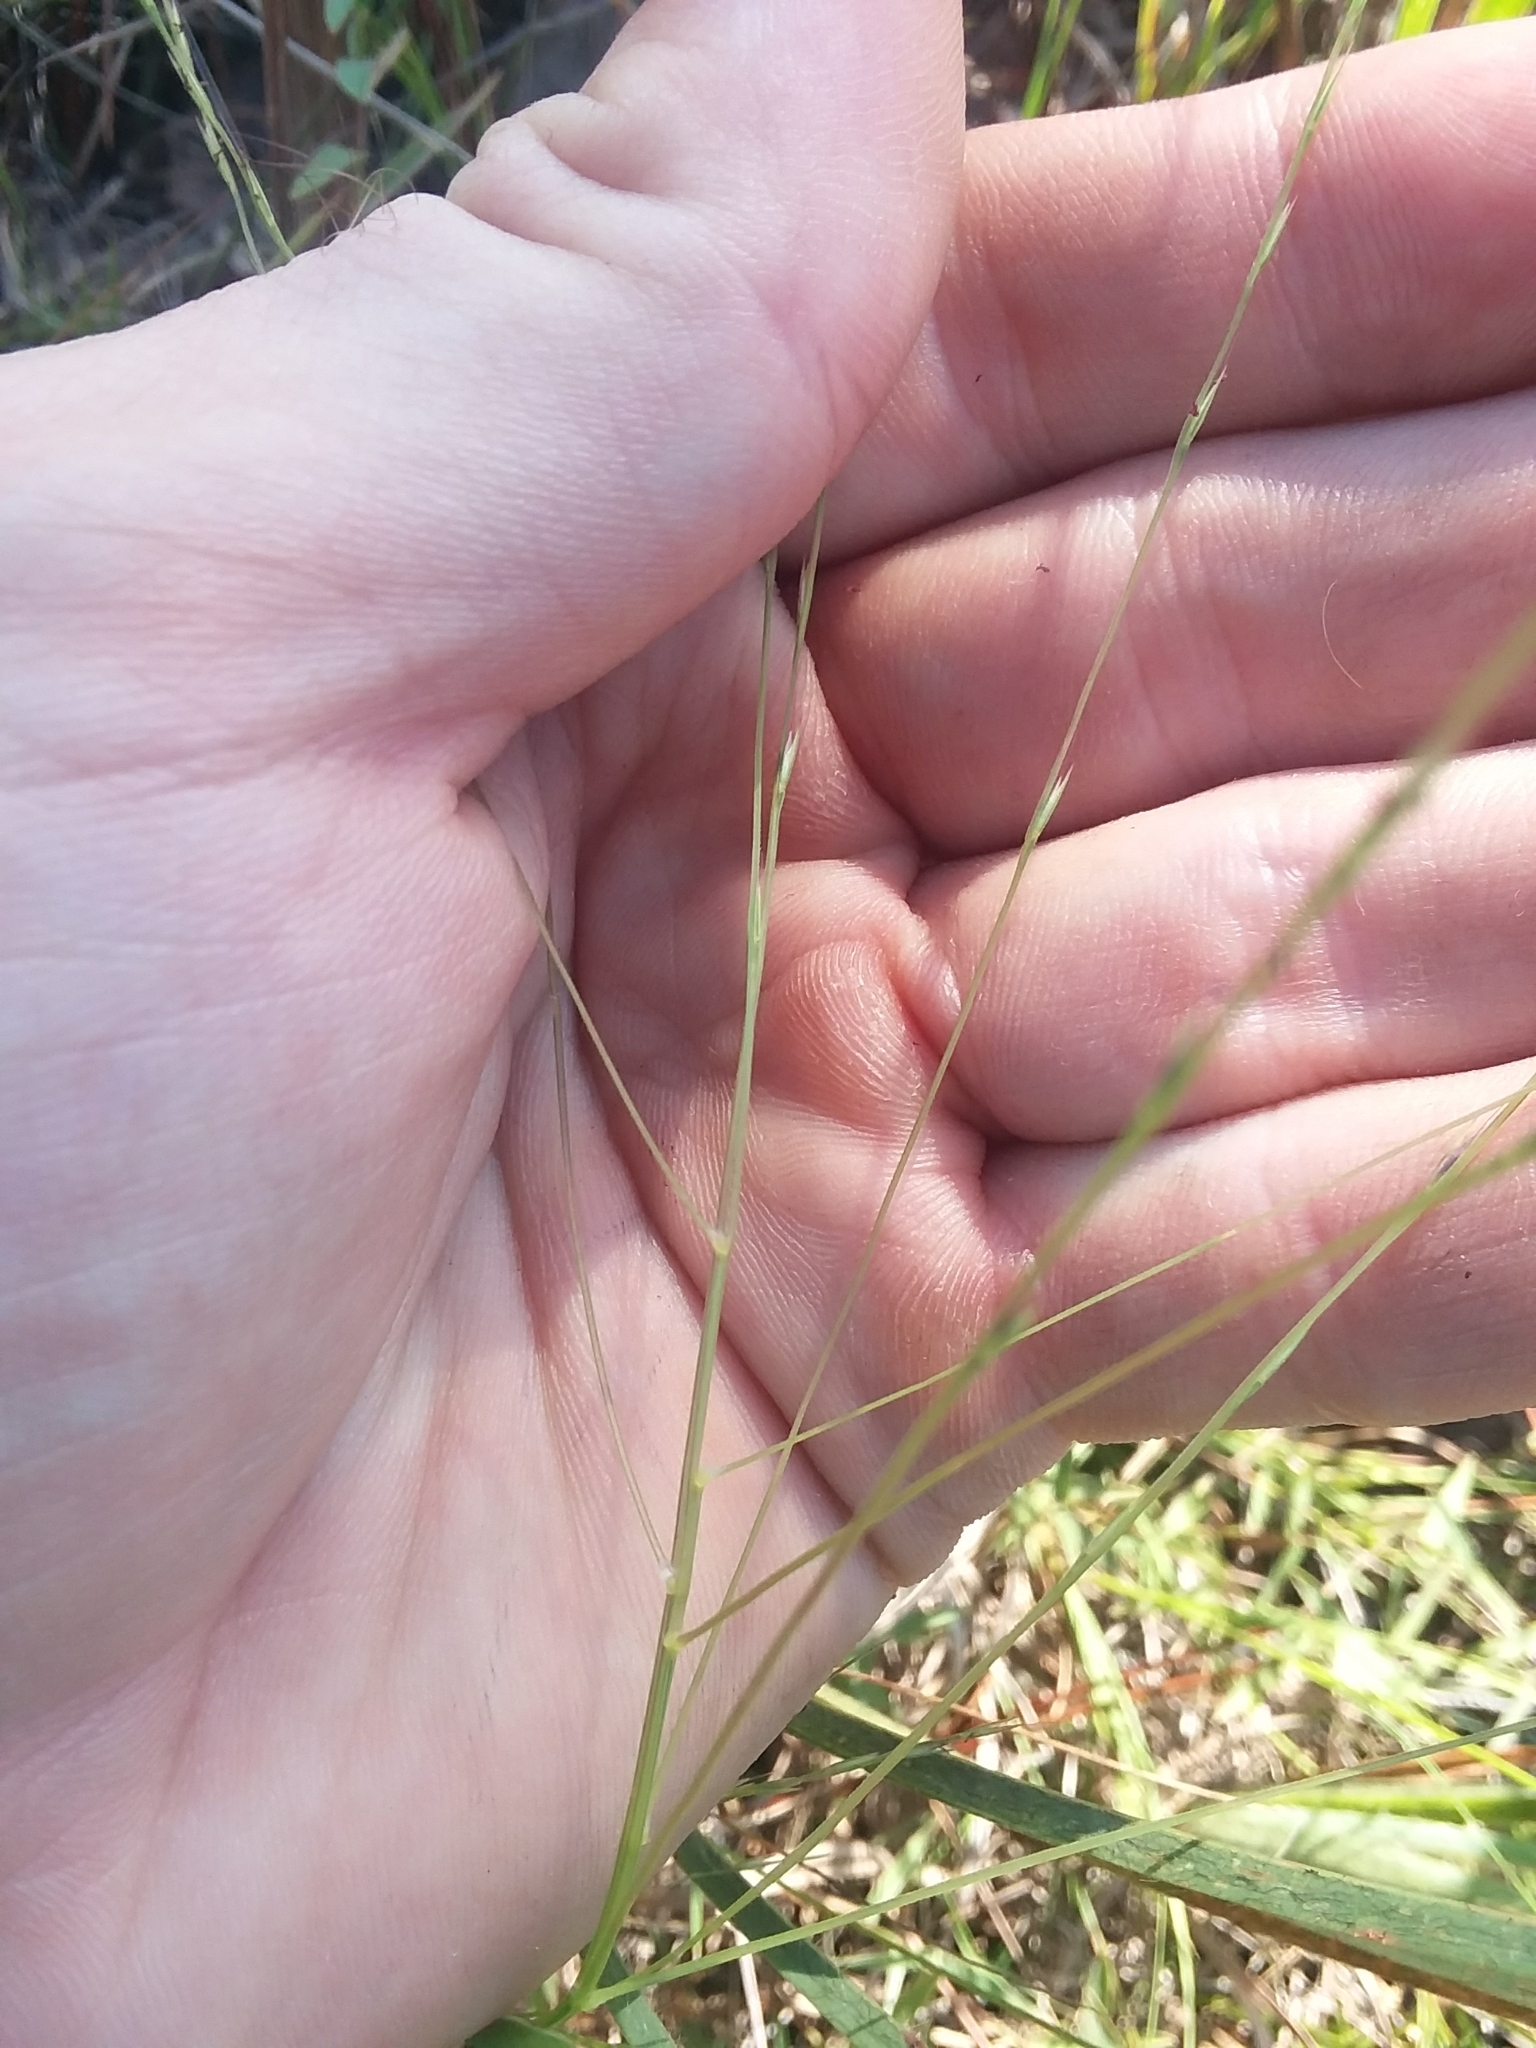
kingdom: Plantae
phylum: Tracheophyta
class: Liliopsida
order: Poales
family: Poaceae
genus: Gymnopogon
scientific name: Gymnopogon brevifolius
